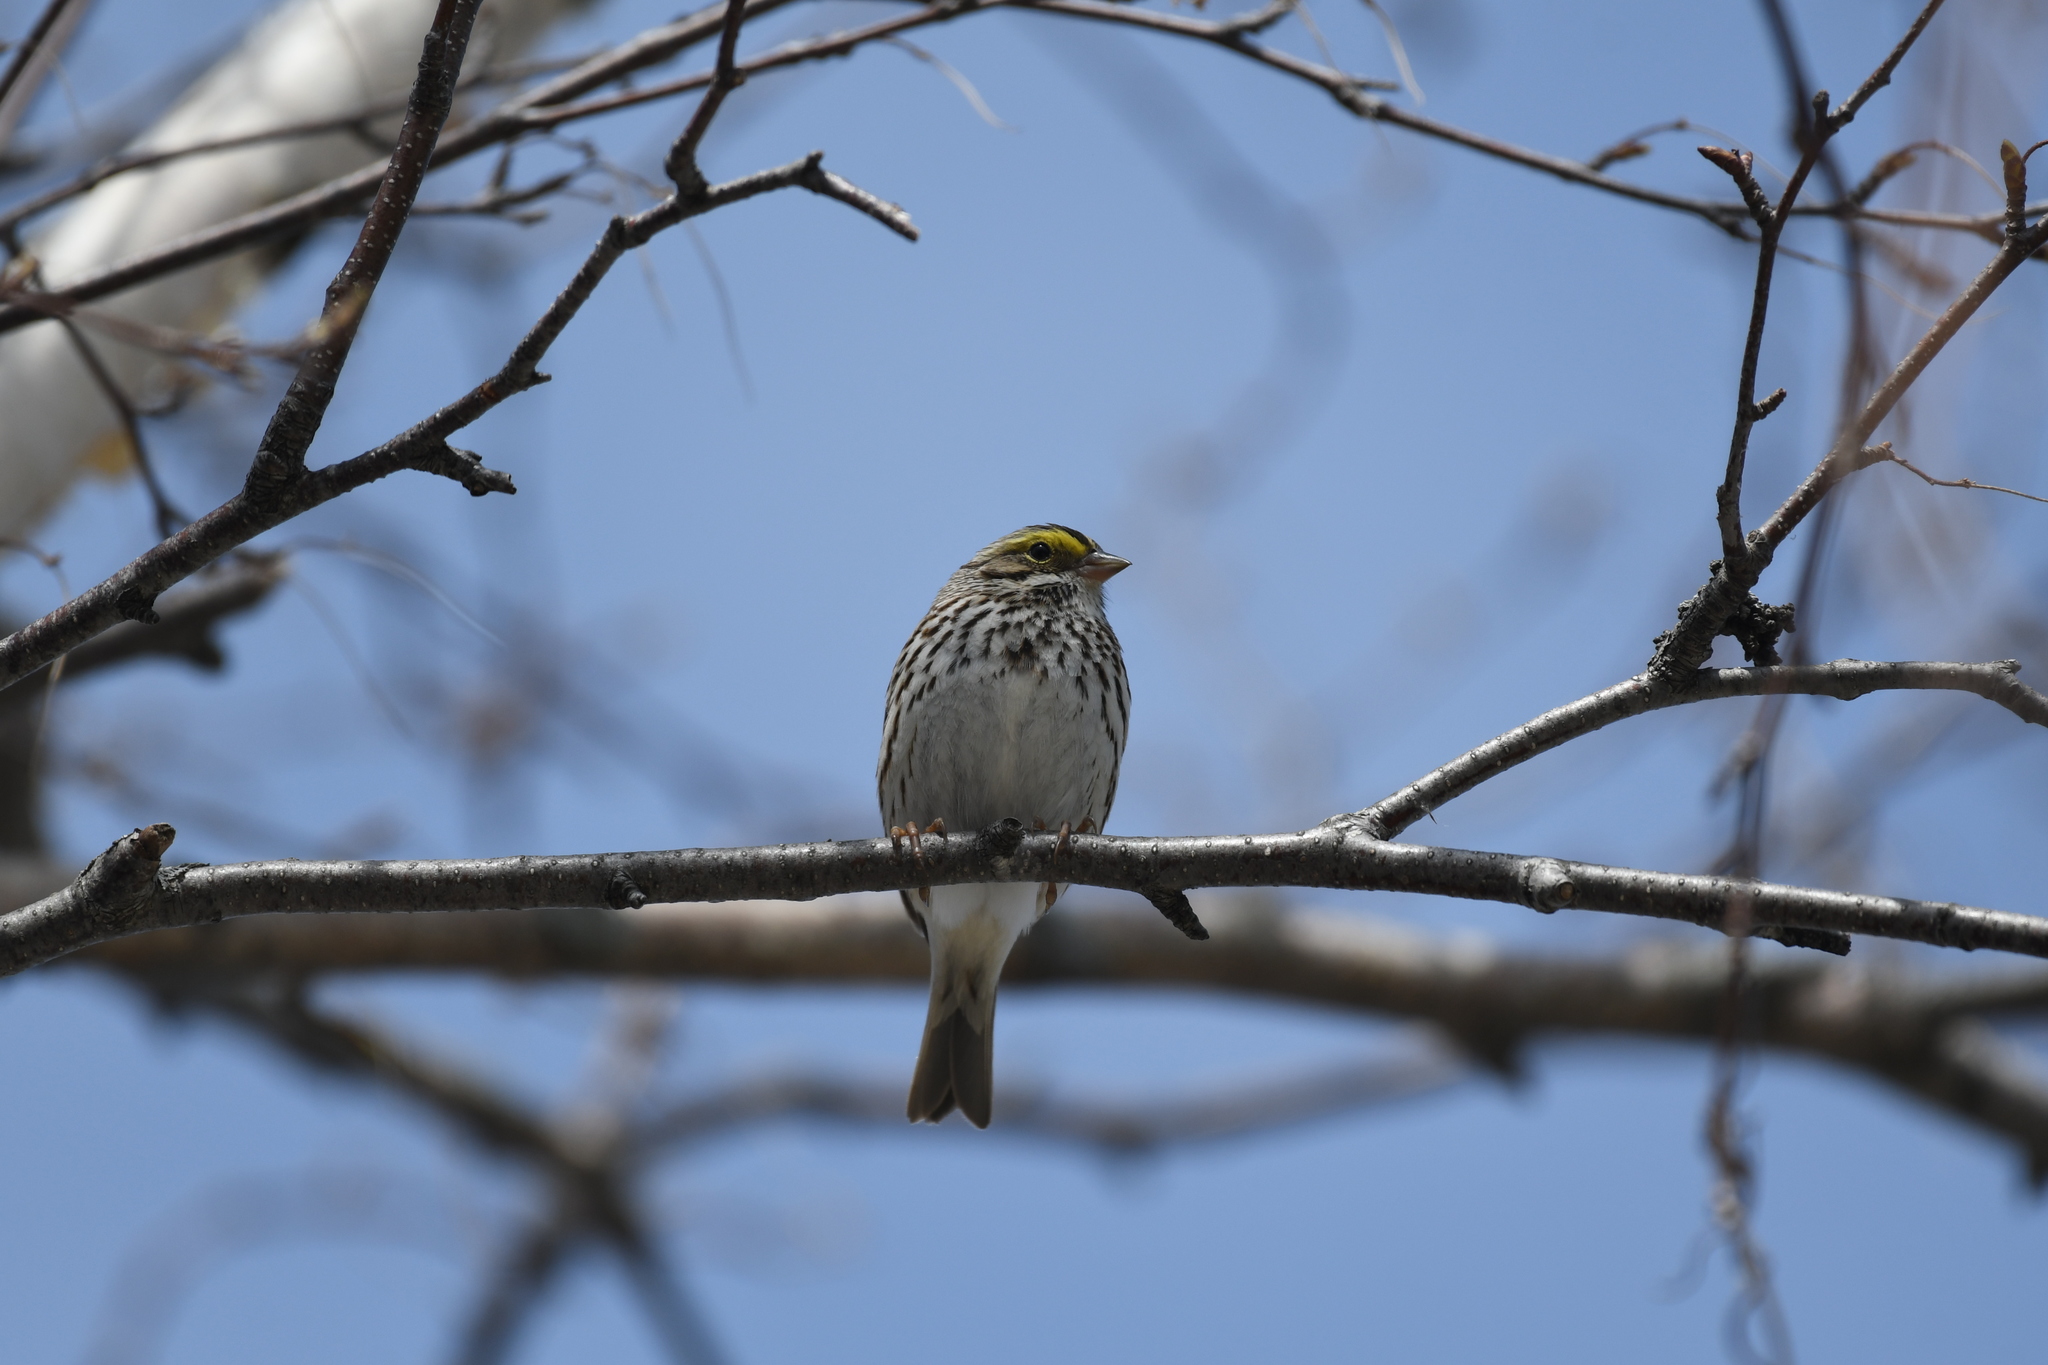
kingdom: Animalia
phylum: Chordata
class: Aves
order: Passeriformes
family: Passerellidae
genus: Passerculus
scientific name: Passerculus sandwichensis
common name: Savannah sparrow
